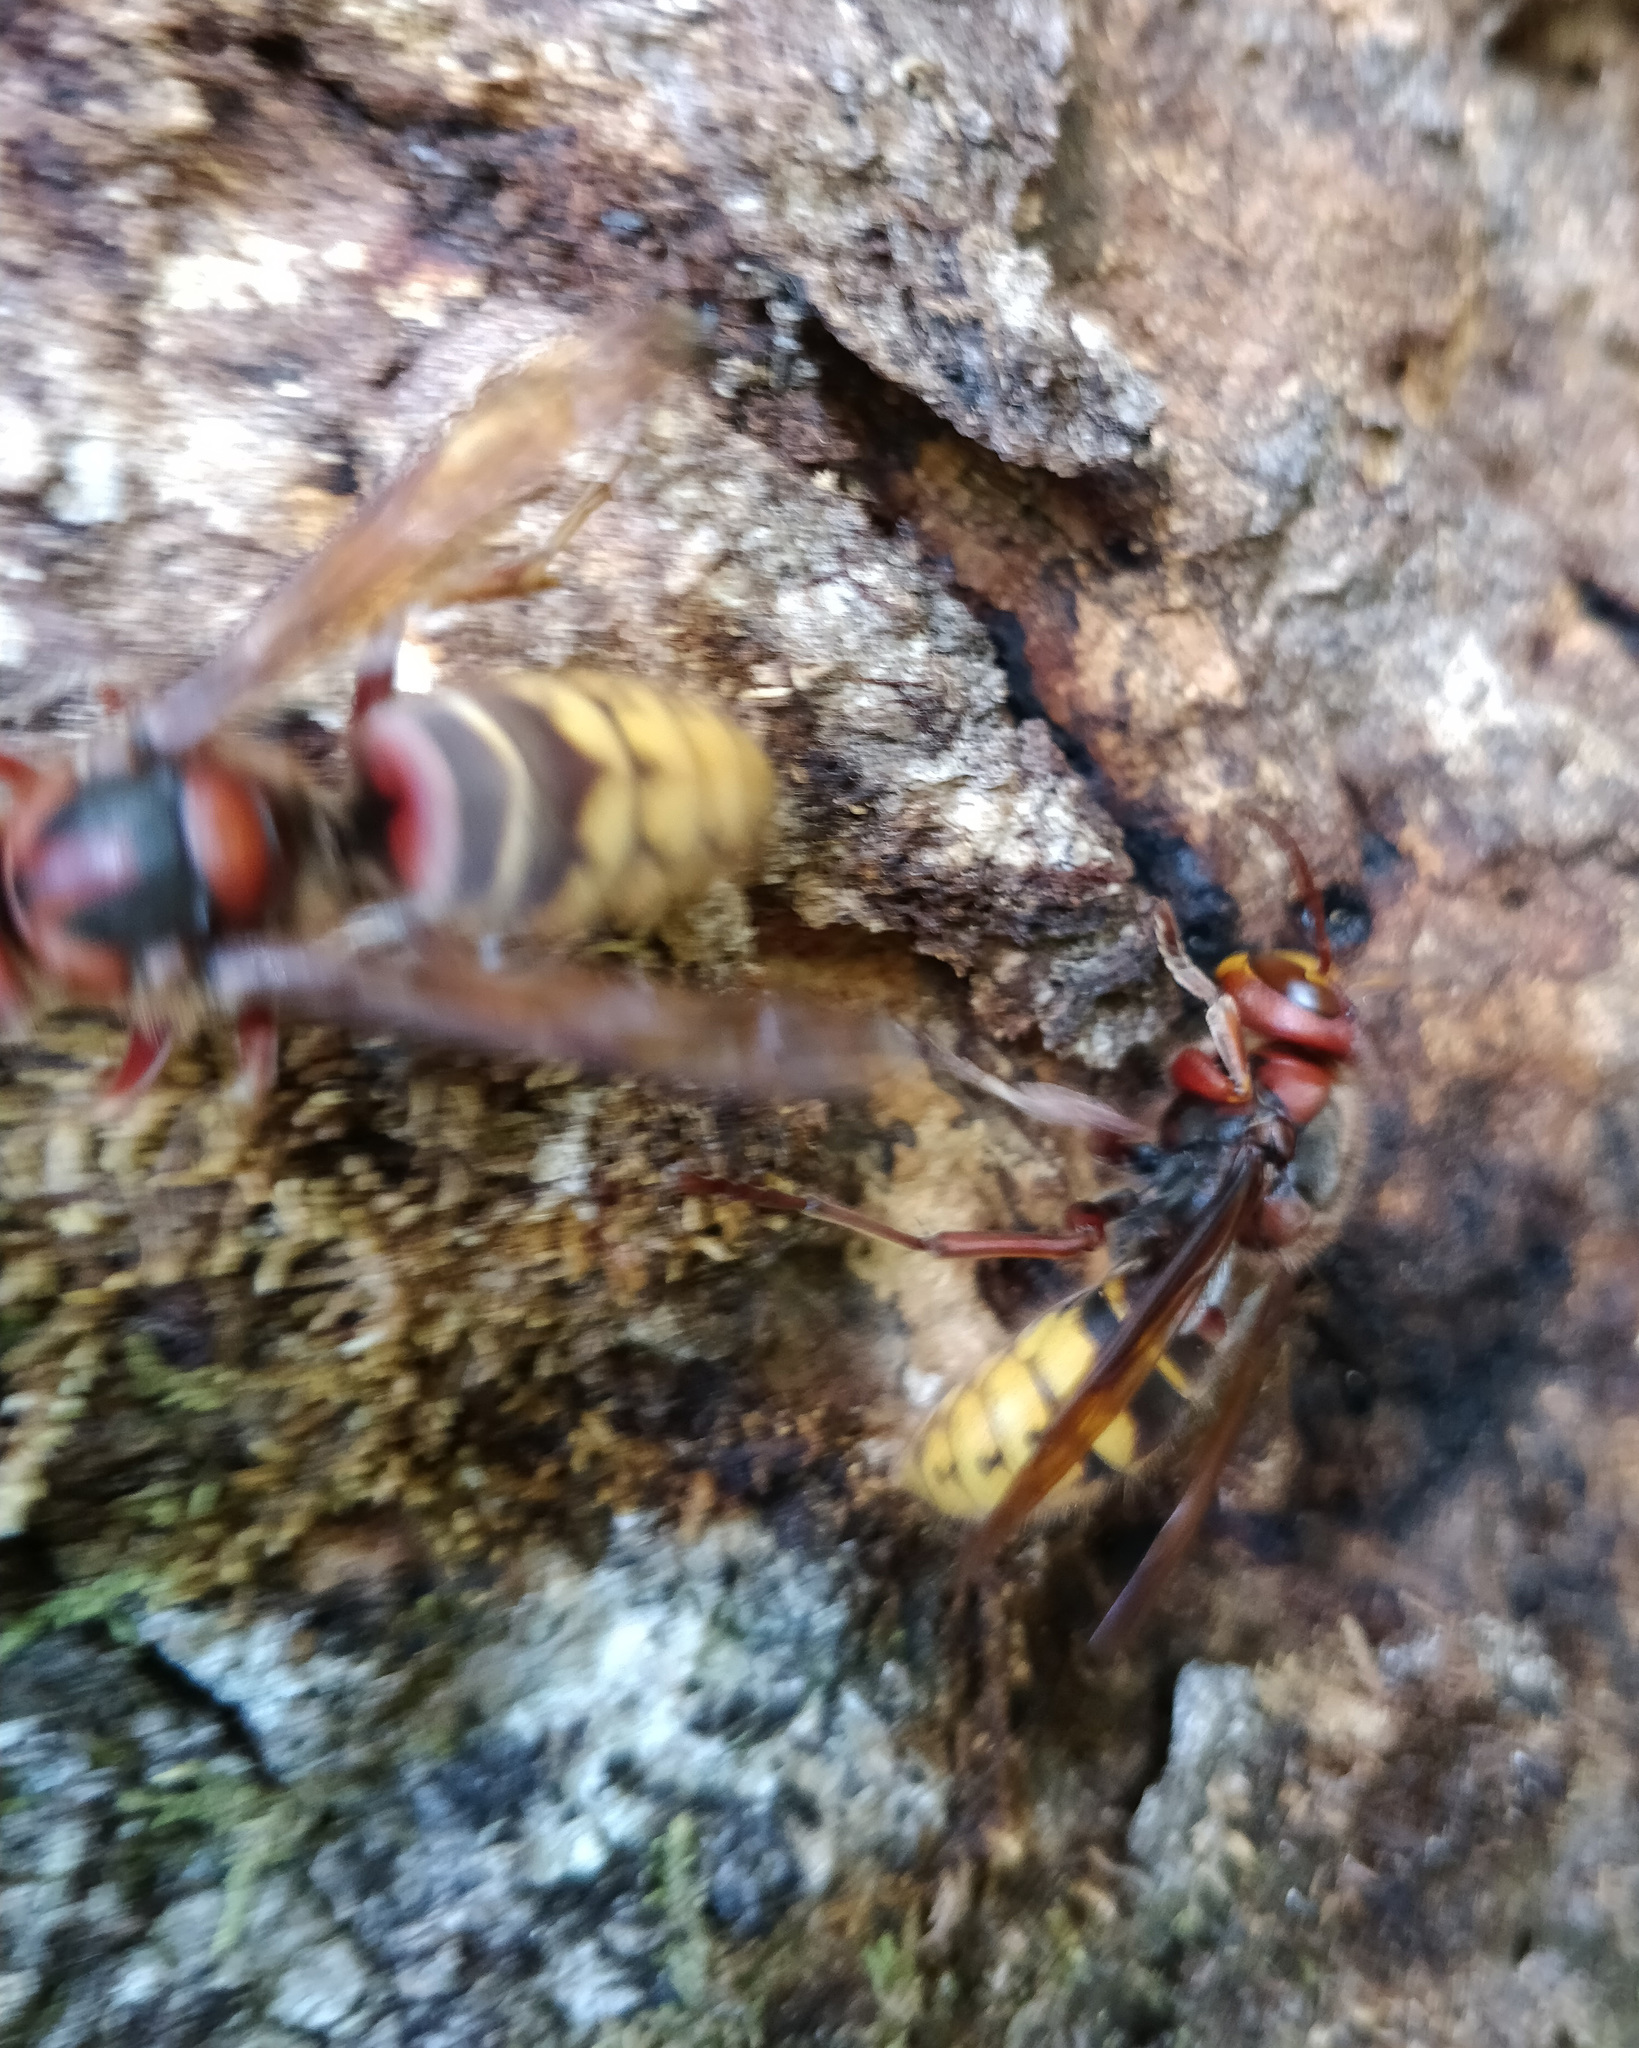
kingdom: Animalia
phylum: Arthropoda
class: Insecta
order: Hymenoptera
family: Vespidae
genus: Vespa
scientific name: Vespa crabro
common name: Hornet
